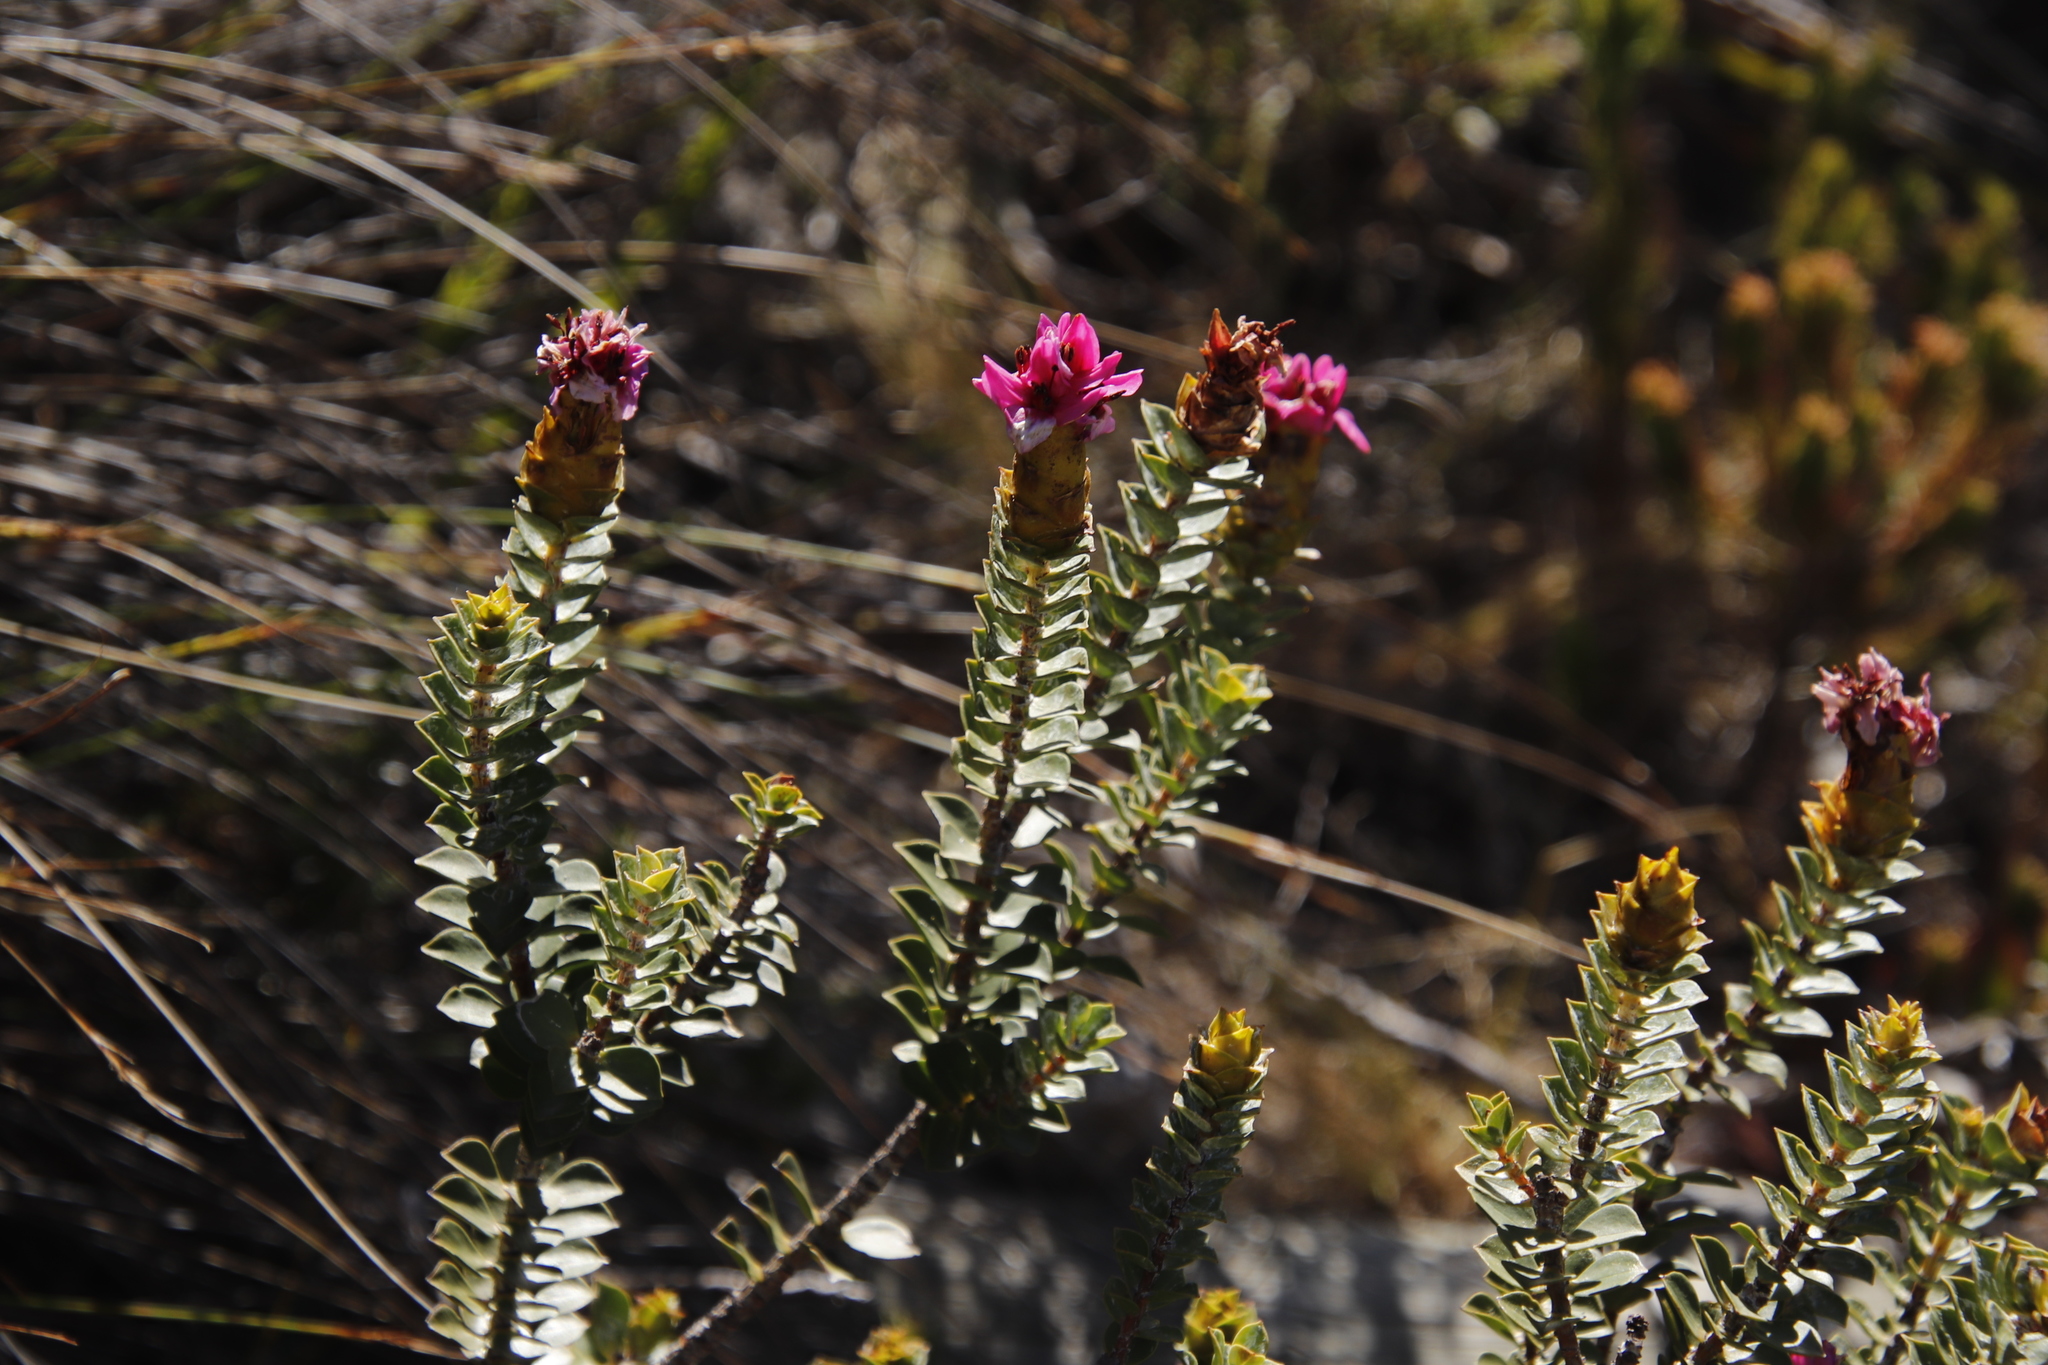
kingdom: Plantae
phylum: Tracheophyta
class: Magnoliopsida
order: Myrtales
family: Penaeaceae
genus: Saltera
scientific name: Saltera sarcocolla
